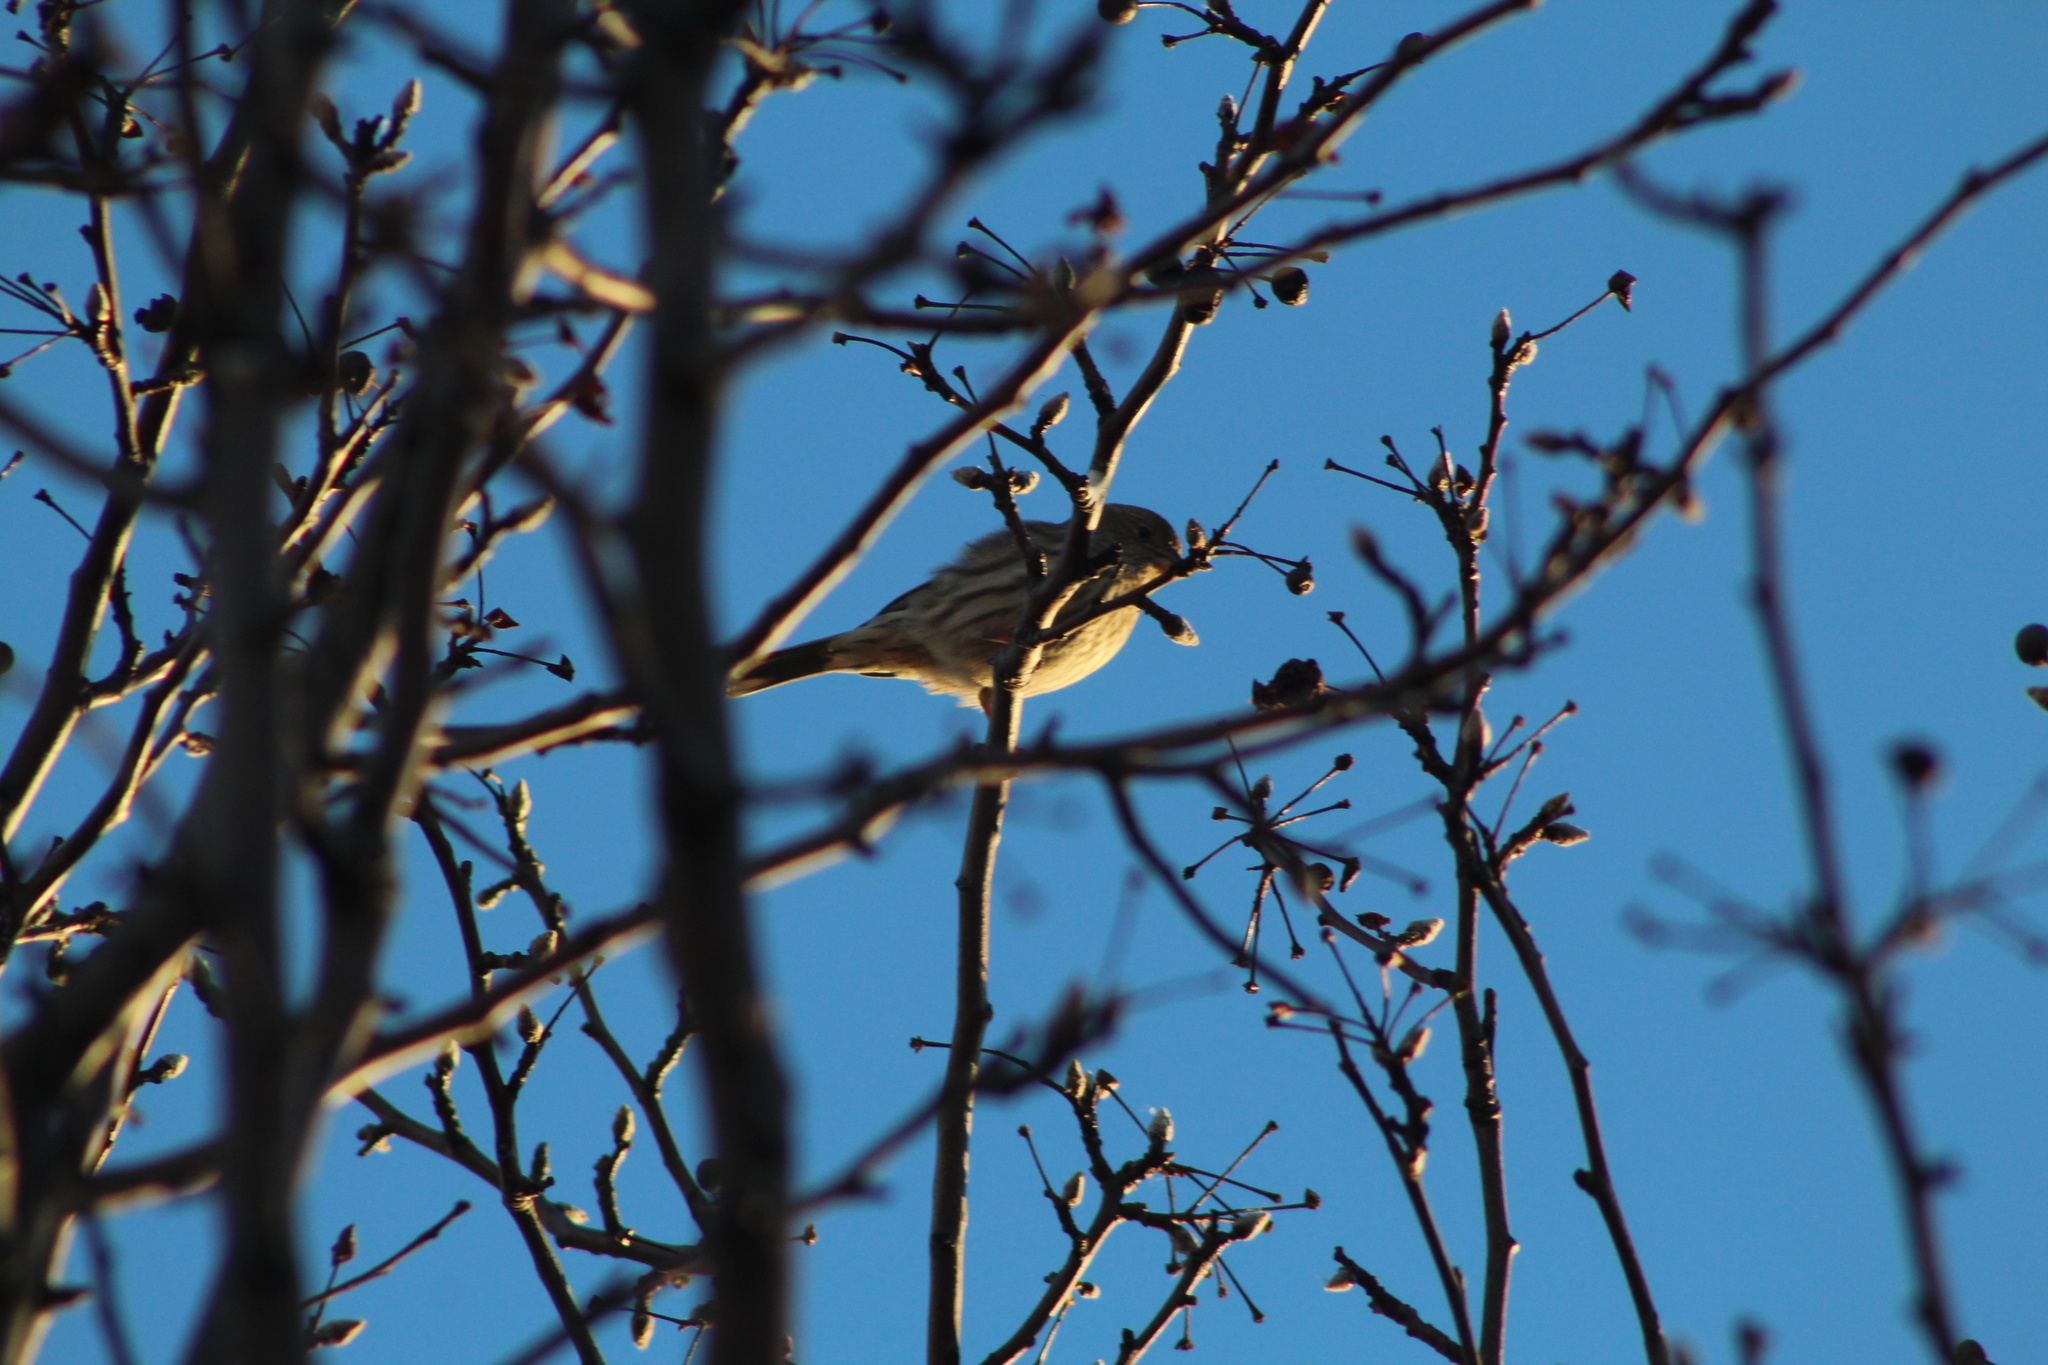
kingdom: Animalia
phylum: Chordata
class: Aves
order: Passeriformes
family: Fringillidae
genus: Haemorhous
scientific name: Haemorhous mexicanus
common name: House finch
